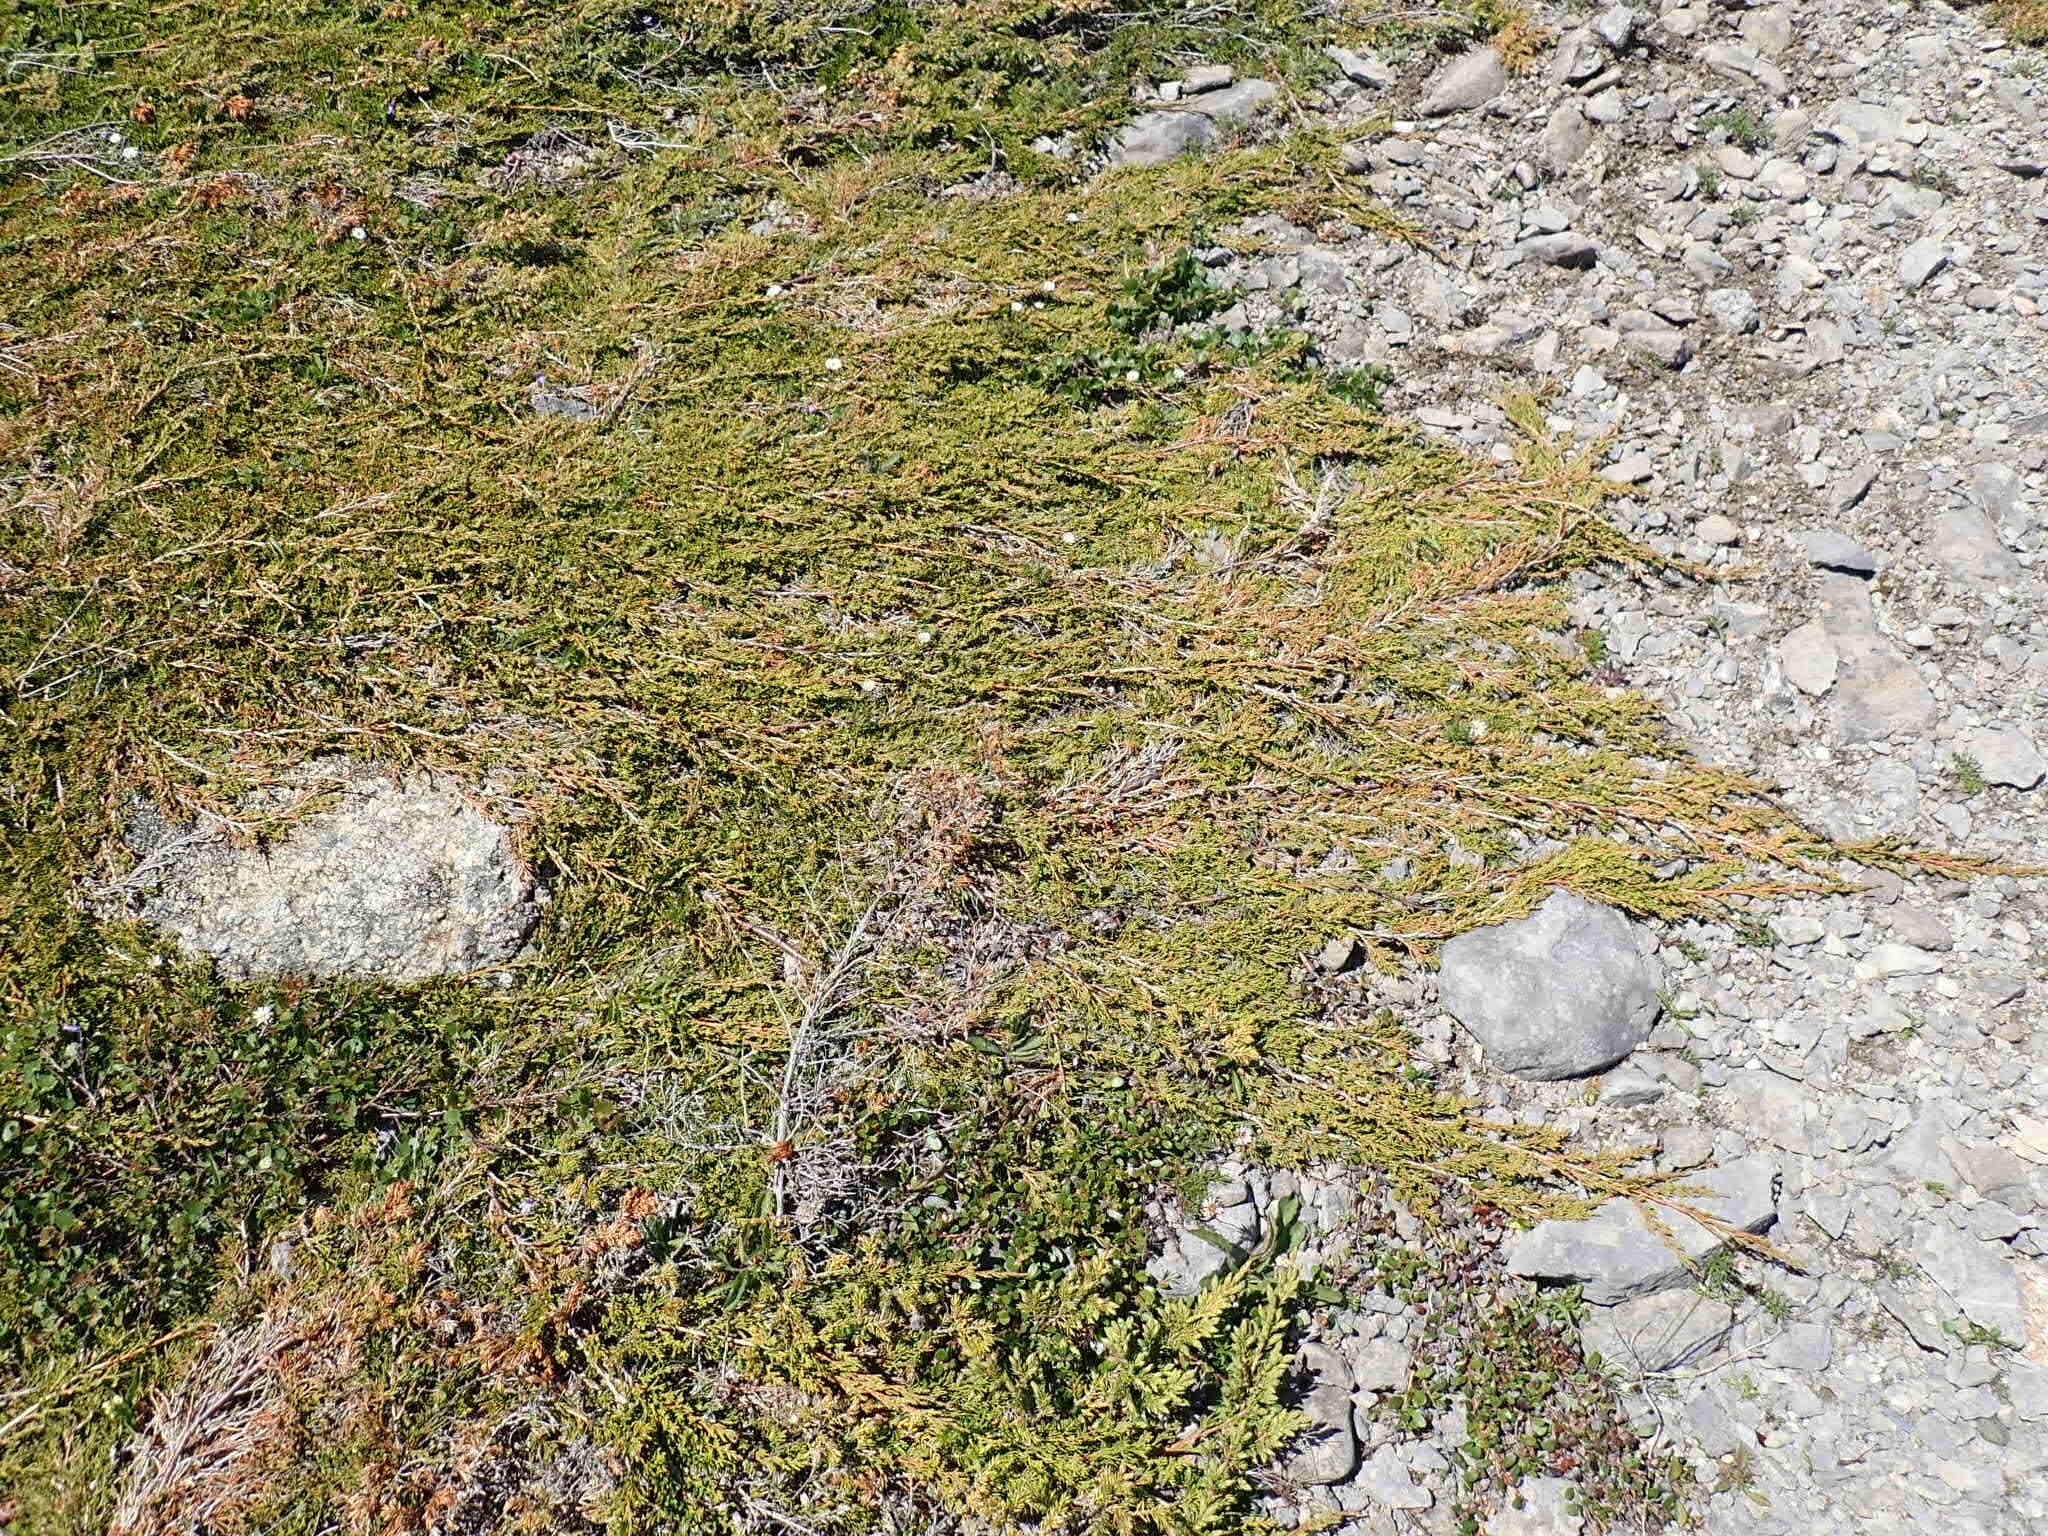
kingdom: Plantae
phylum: Tracheophyta
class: Pinopsida
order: Pinales
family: Cupressaceae
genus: Juniperus
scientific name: Juniperus horizontalis
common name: Creeping juniper
